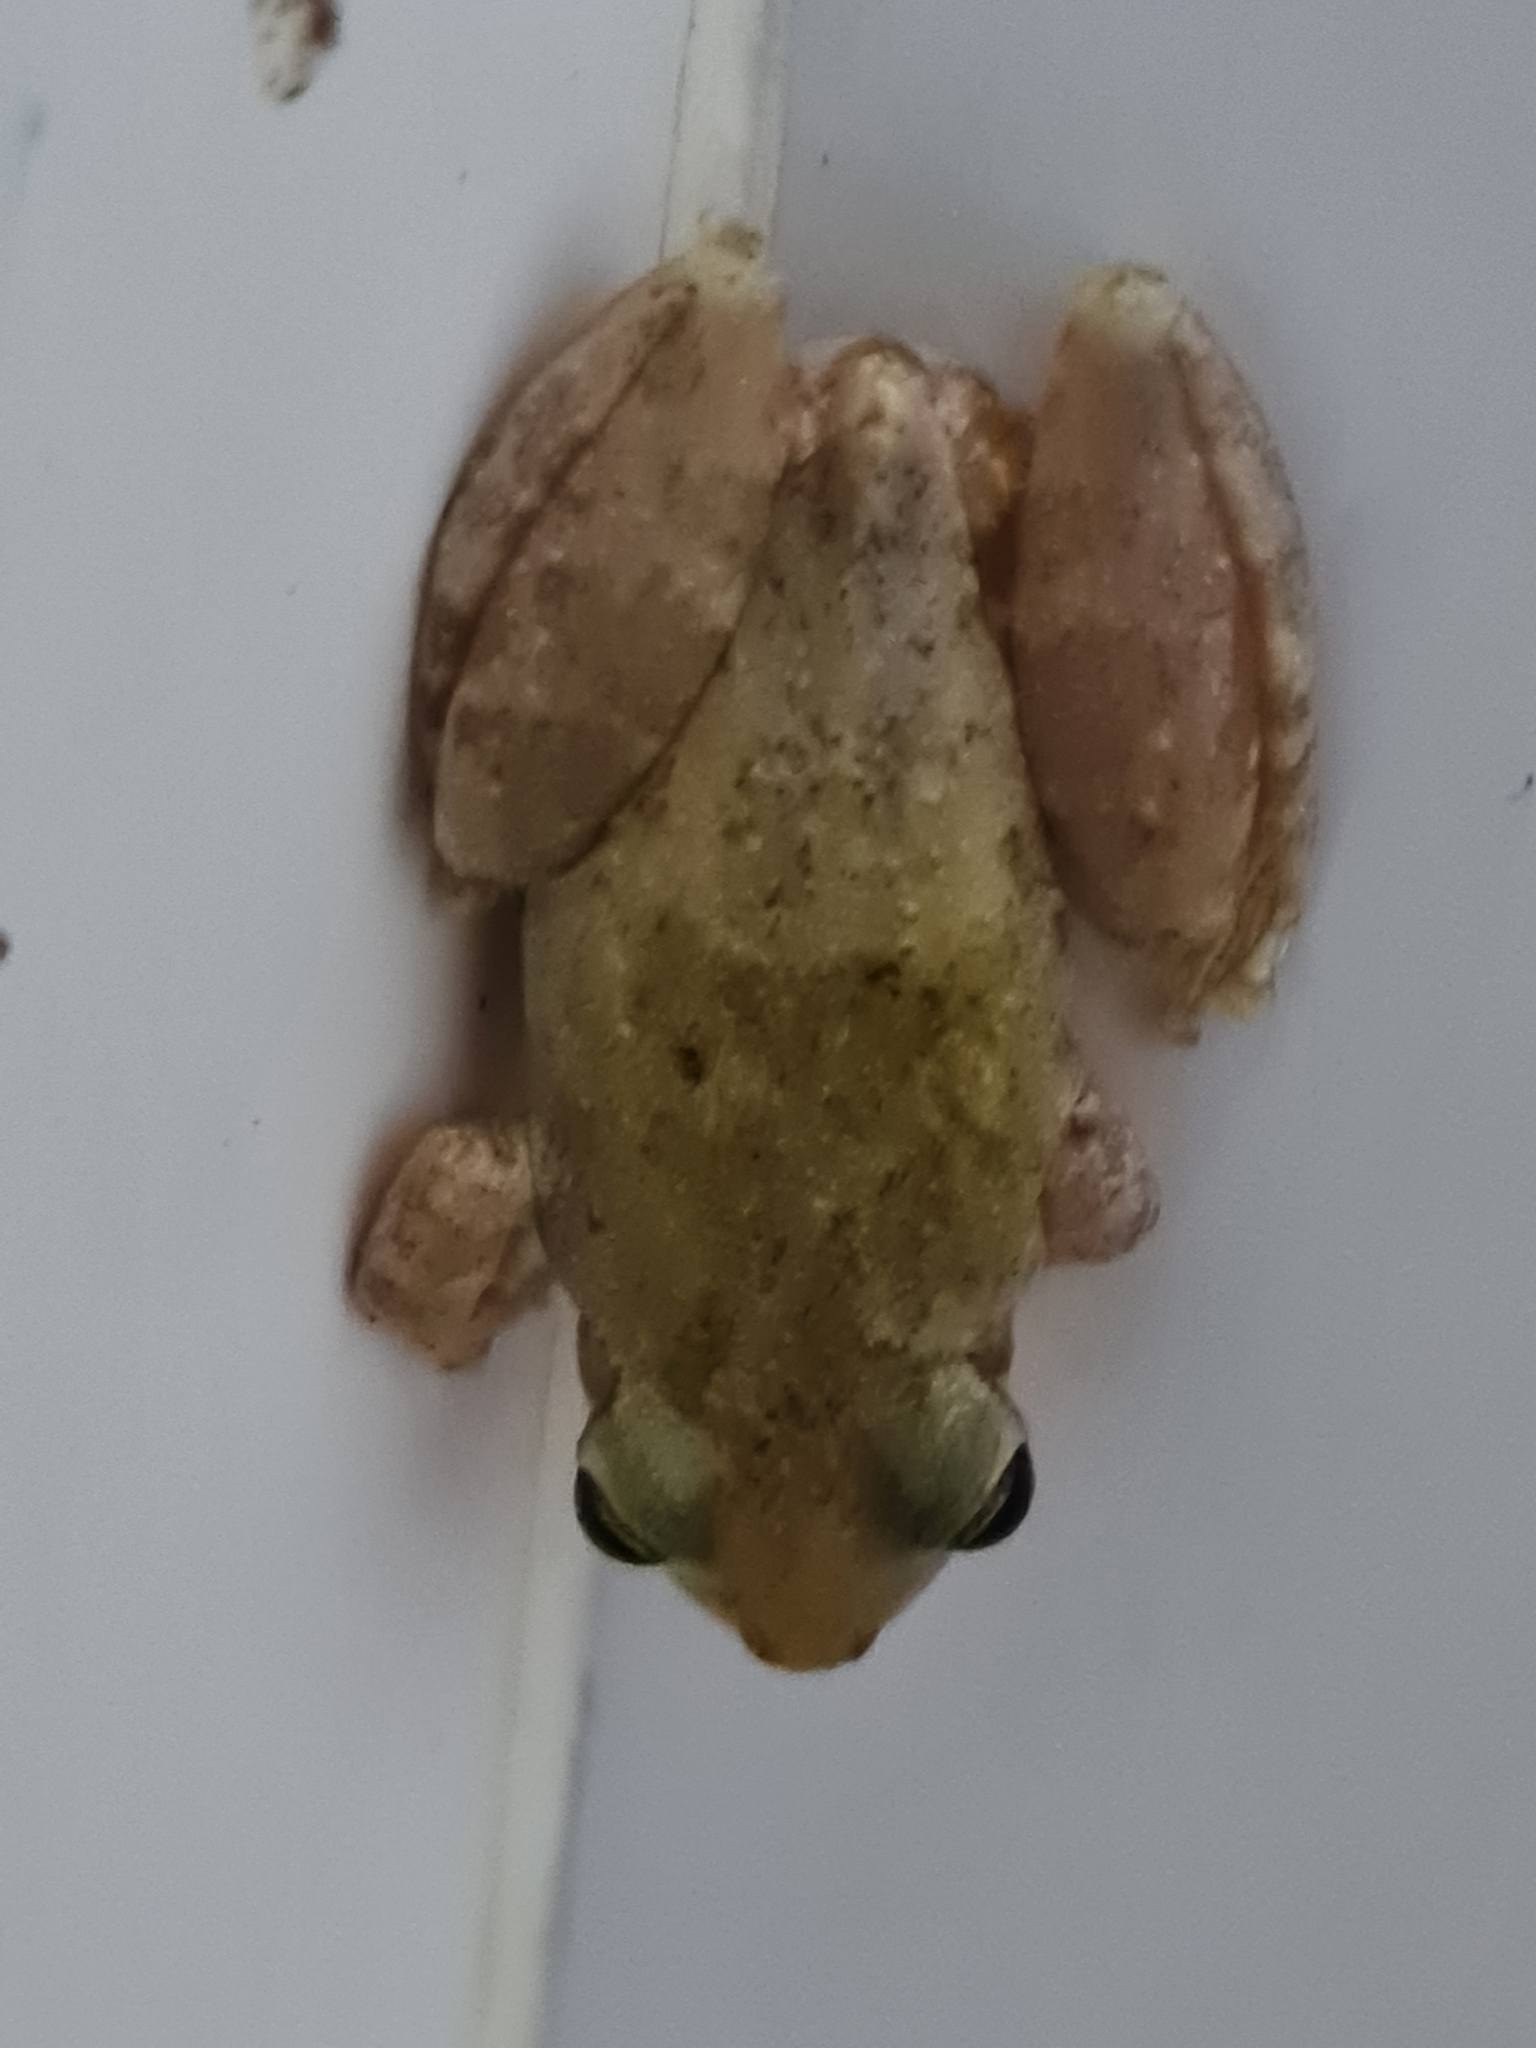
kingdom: Animalia
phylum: Chordata
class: Amphibia
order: Anura
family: Hylidae
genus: Scinax
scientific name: Scinax x-signatus
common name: Venezuela snouted treefrog
